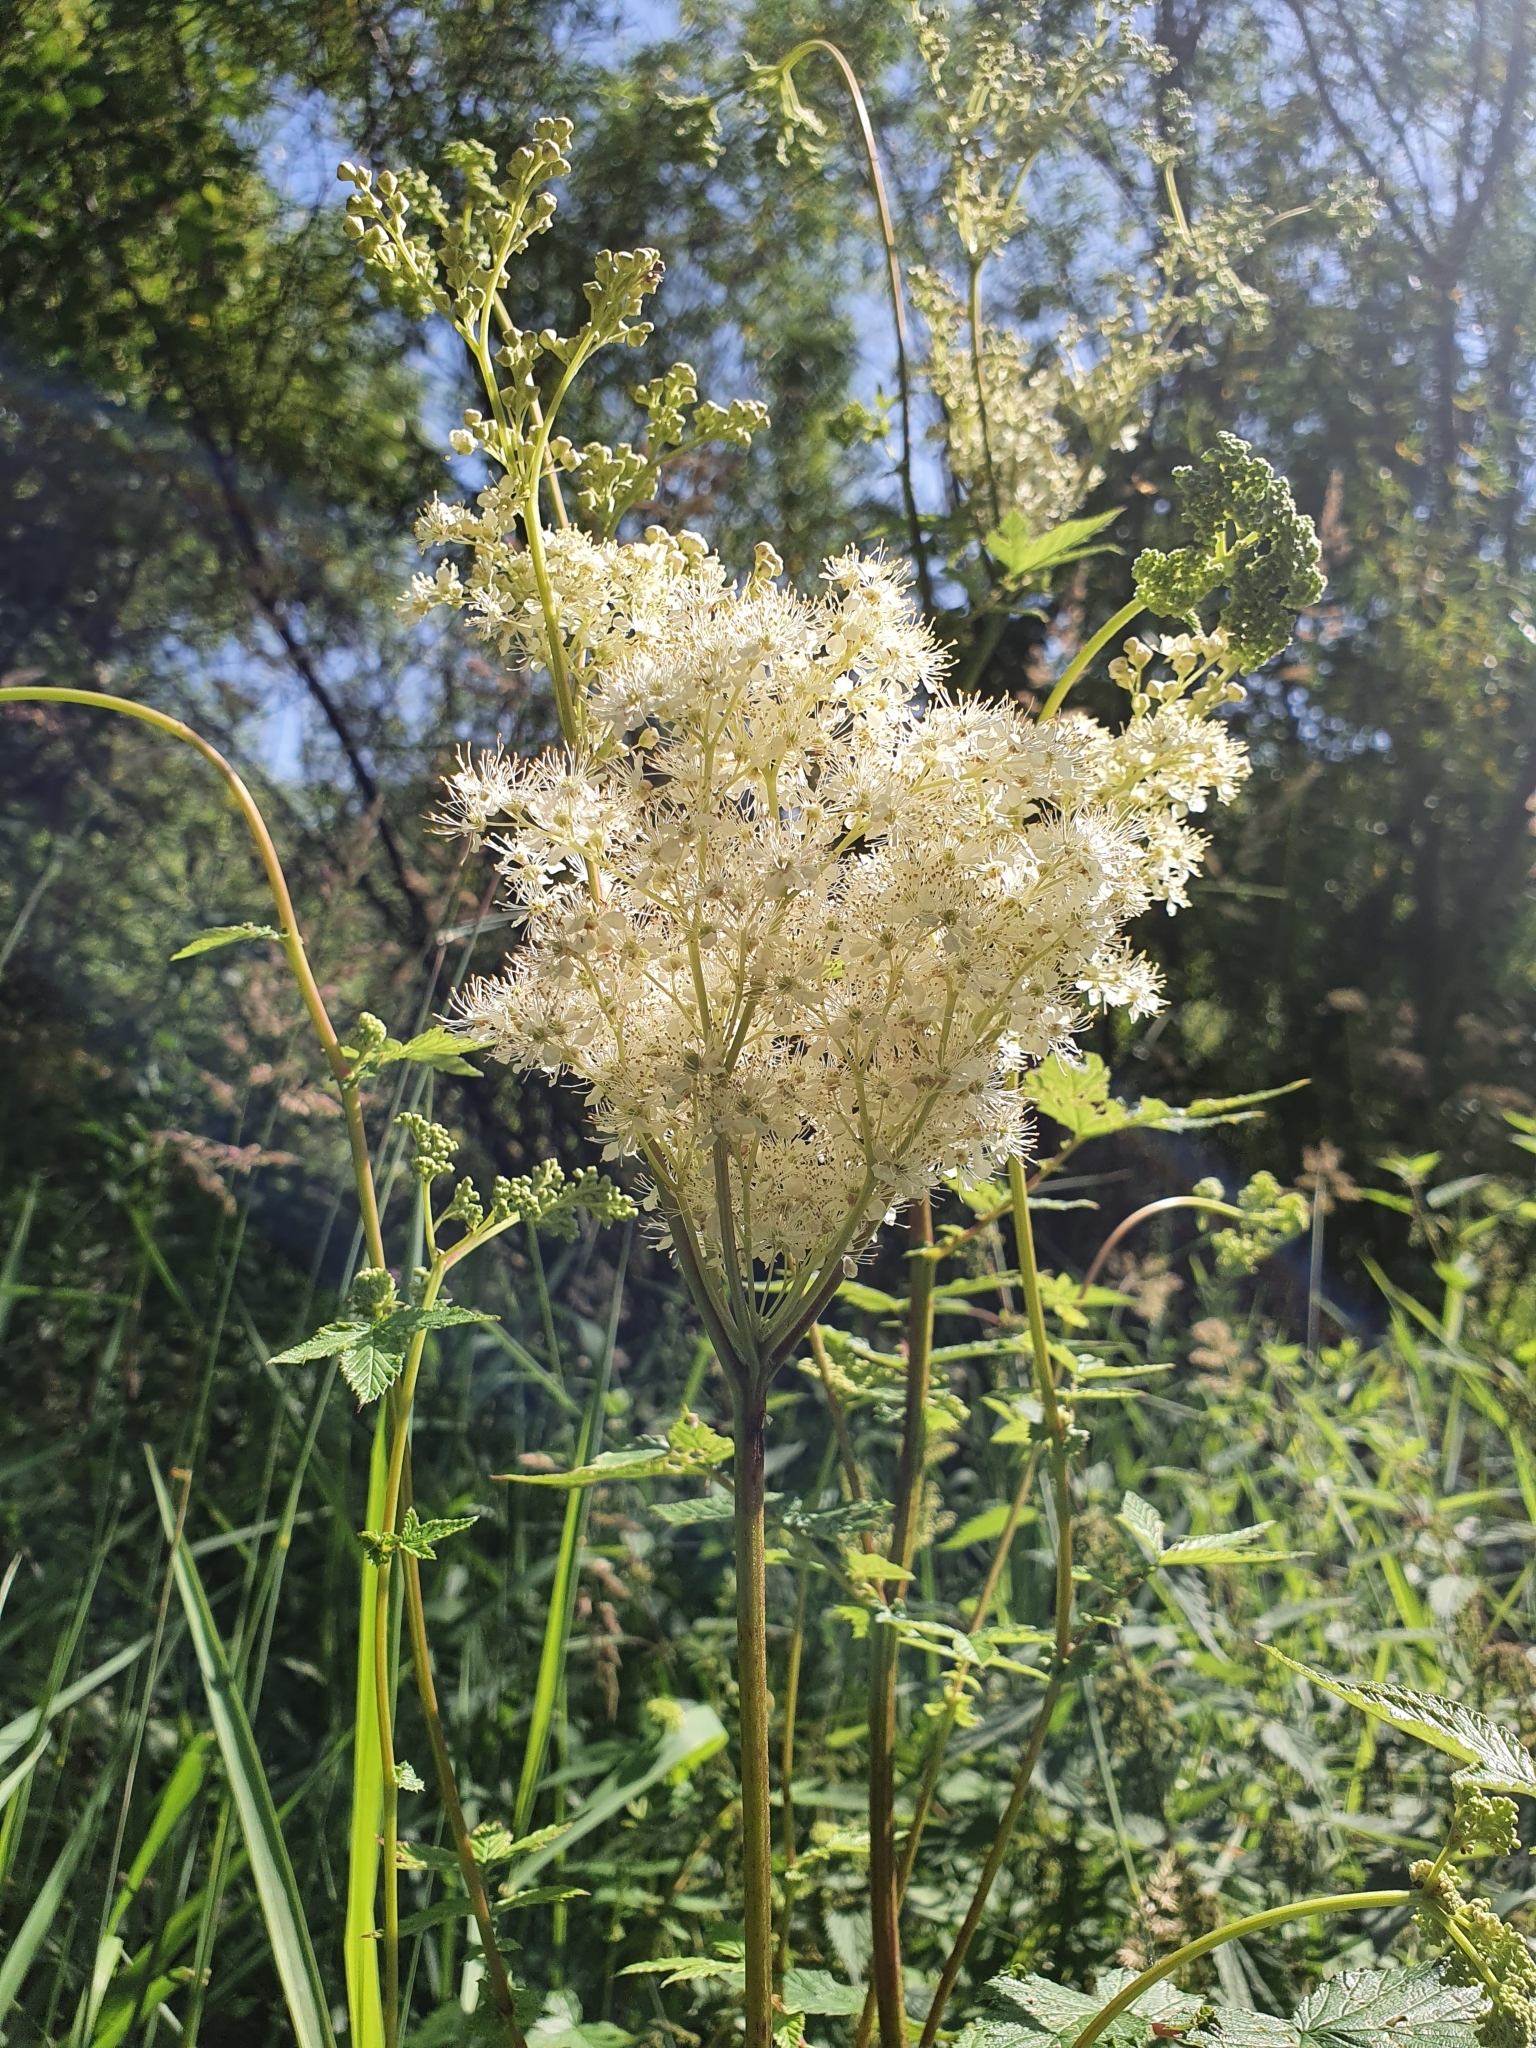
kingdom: Plantae
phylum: Tracheophyta
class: Magnoliopsida
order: Rosales
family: Rosaceae
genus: Filipendula
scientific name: Filipendula ulmaria
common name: Meadowsweet
